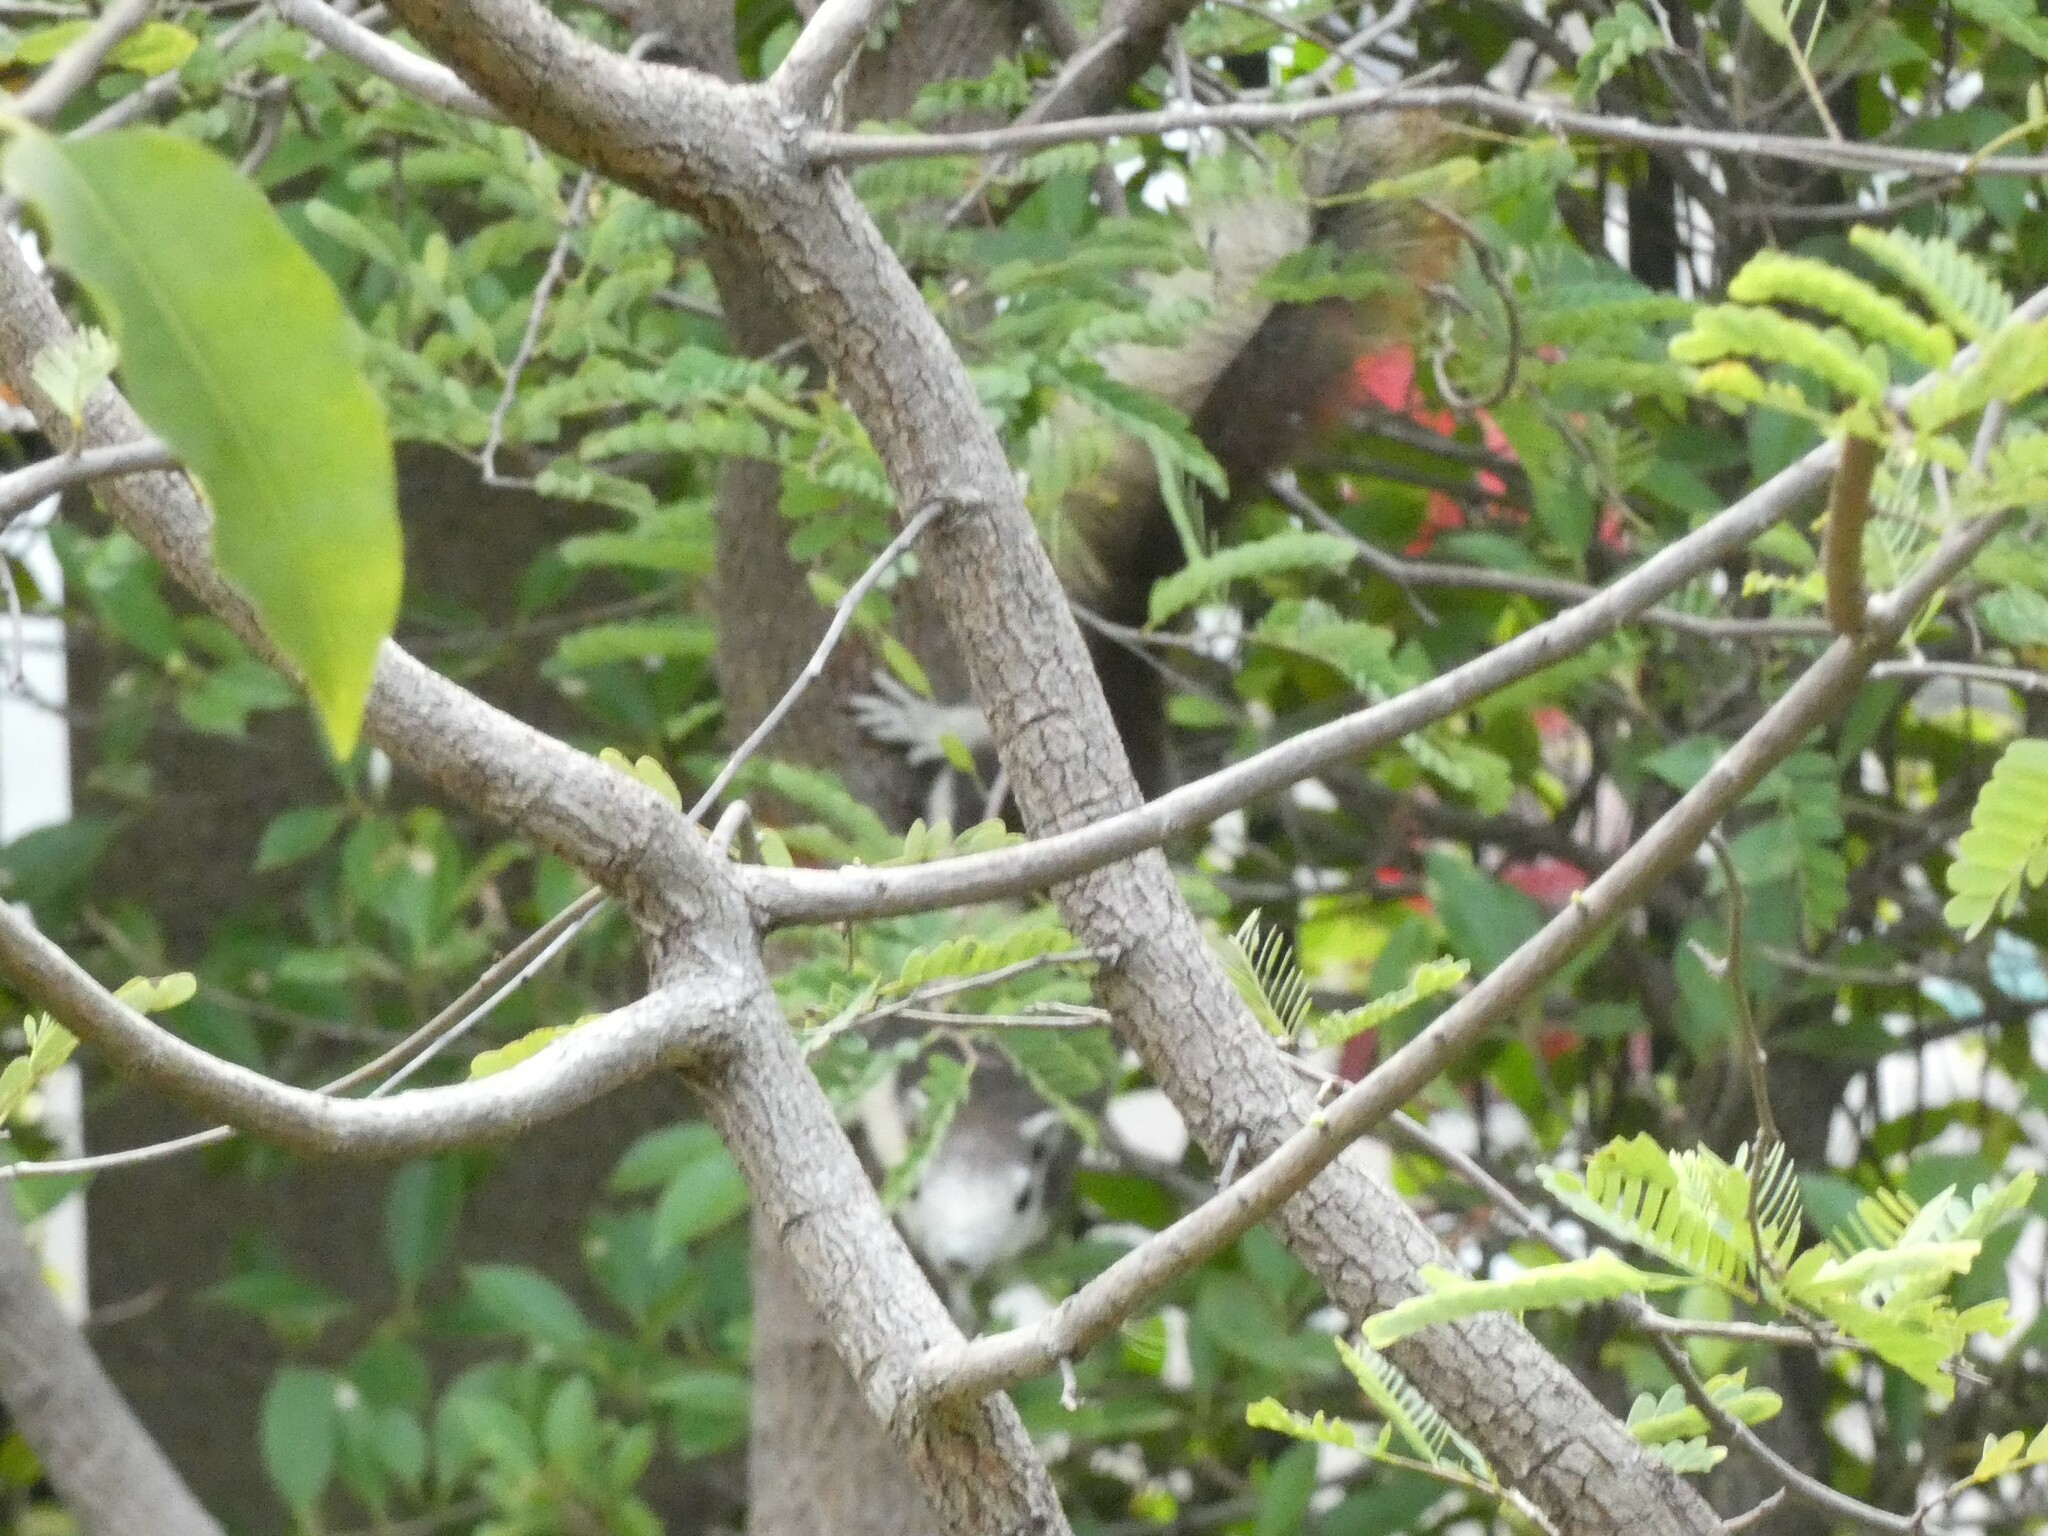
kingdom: Animalia
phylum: Chordata
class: Mammalia
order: Rodentia
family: Sciuridae
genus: Callosciurus
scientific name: Callosciurus finlaysonii
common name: Finlayson's squirrel
